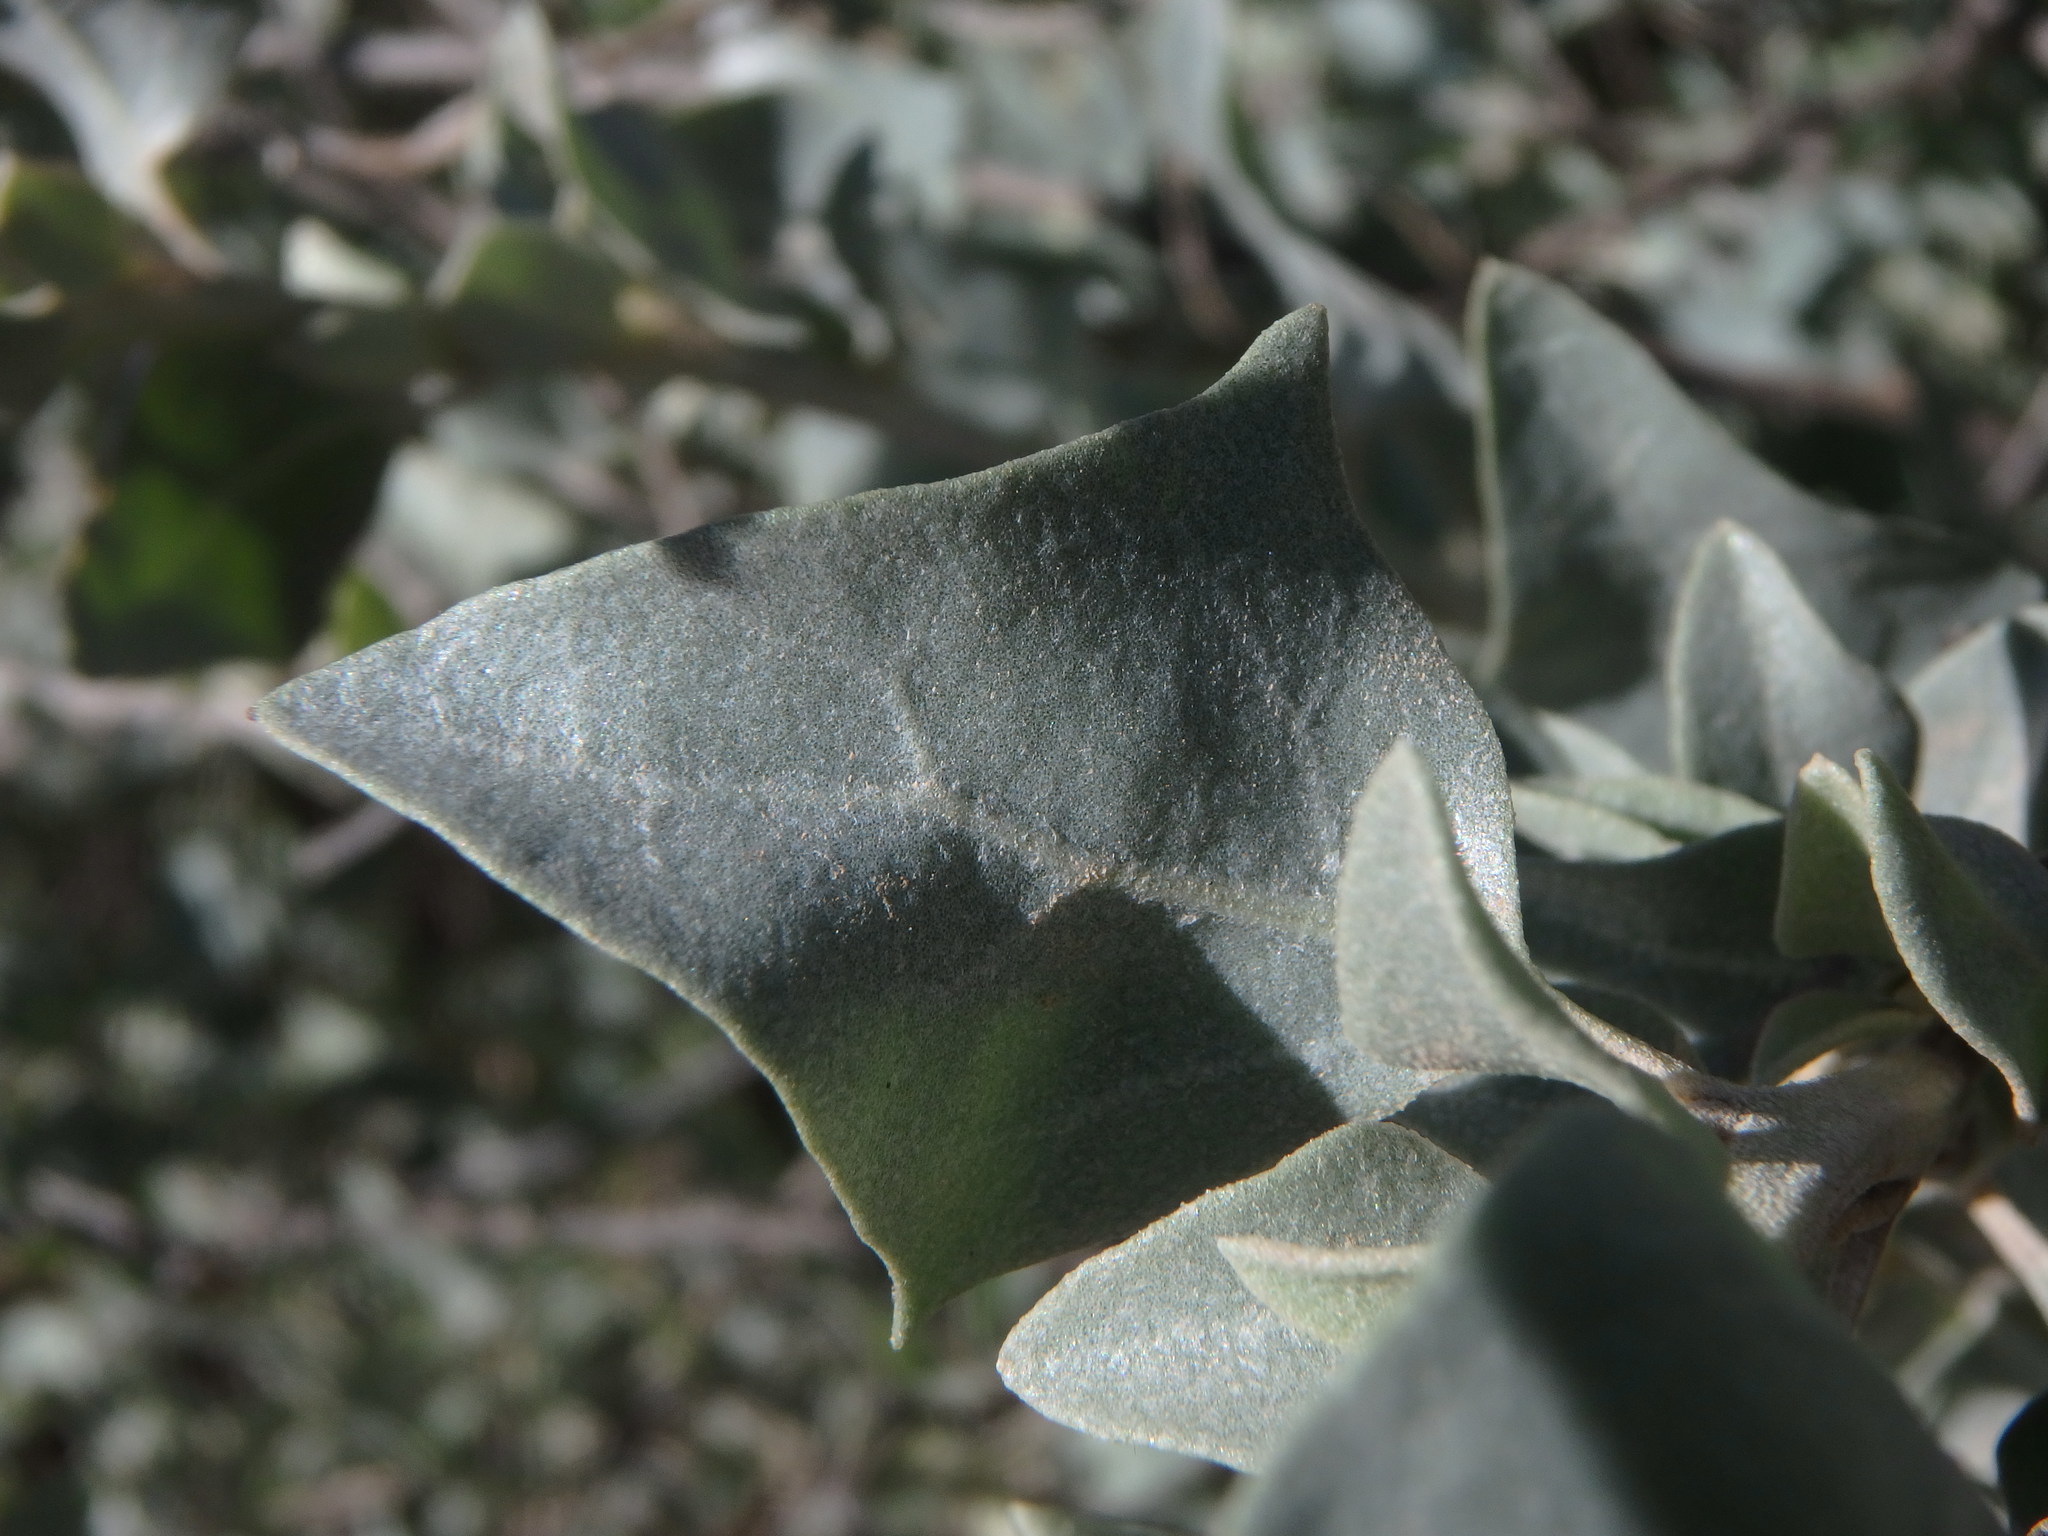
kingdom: Plantae
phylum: Tracheophyta
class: Magnoliopsida
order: Caryophyllales
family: Amaranthaceae
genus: Atriplex
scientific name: Atriplex halimus
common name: Shrubby orache
